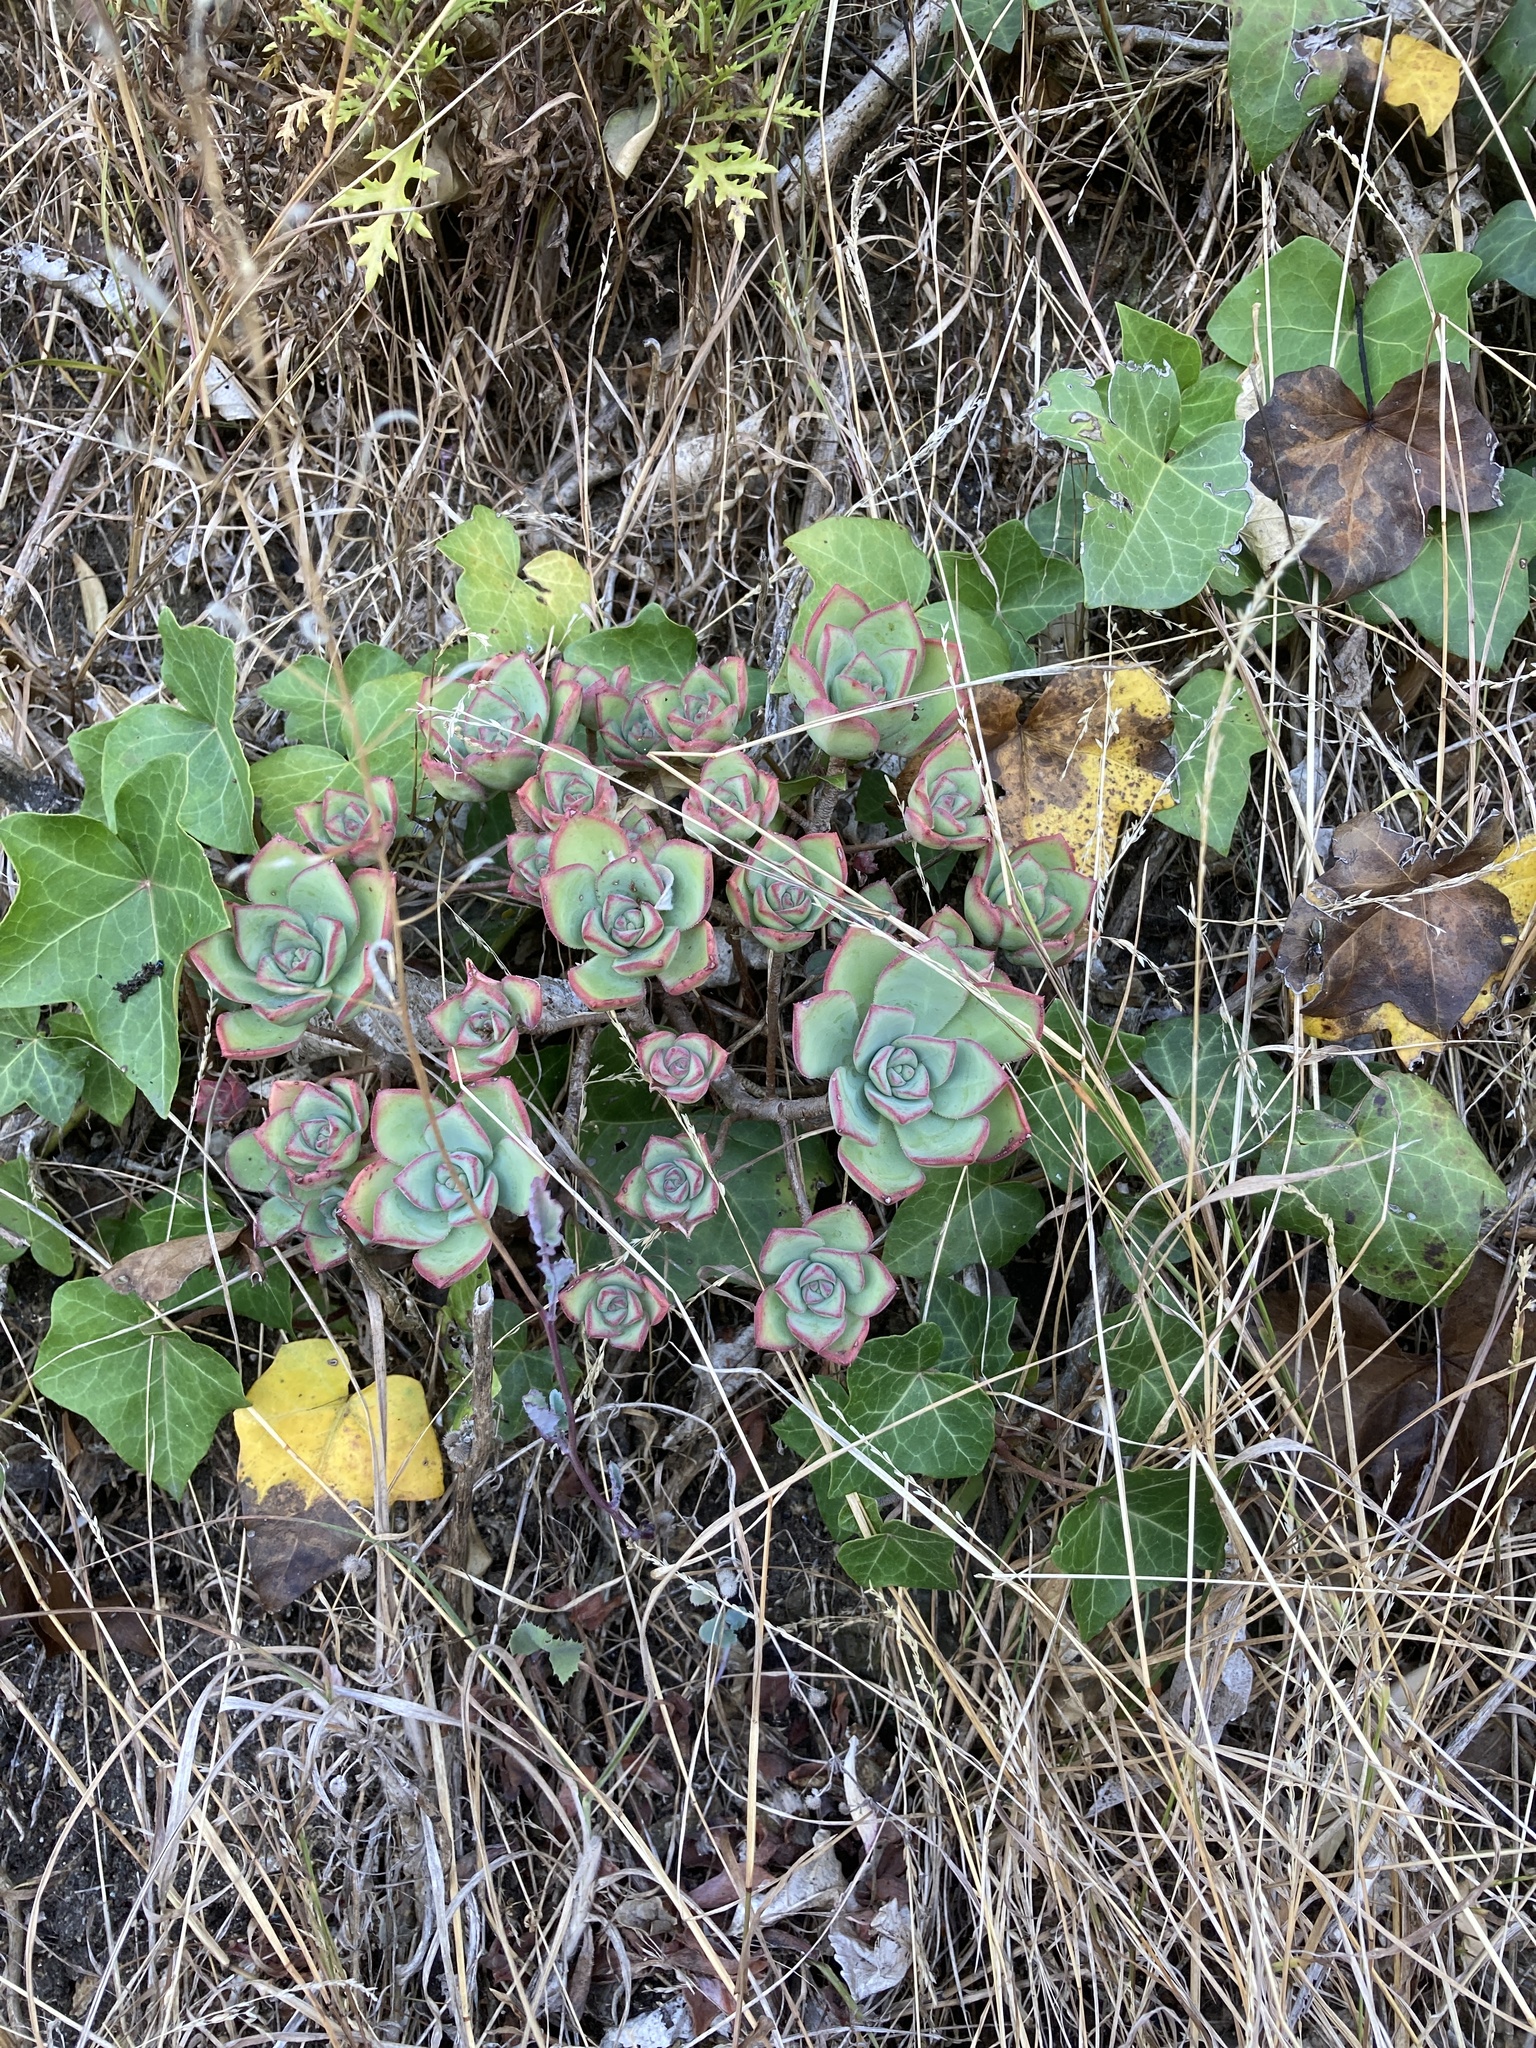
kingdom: Plantae
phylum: Tracheophyta
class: Magnoliopsida
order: Saxifragales
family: Crassulaceae
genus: Aeonium
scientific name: Aeonium haworthii
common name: Haworth's aeonium
